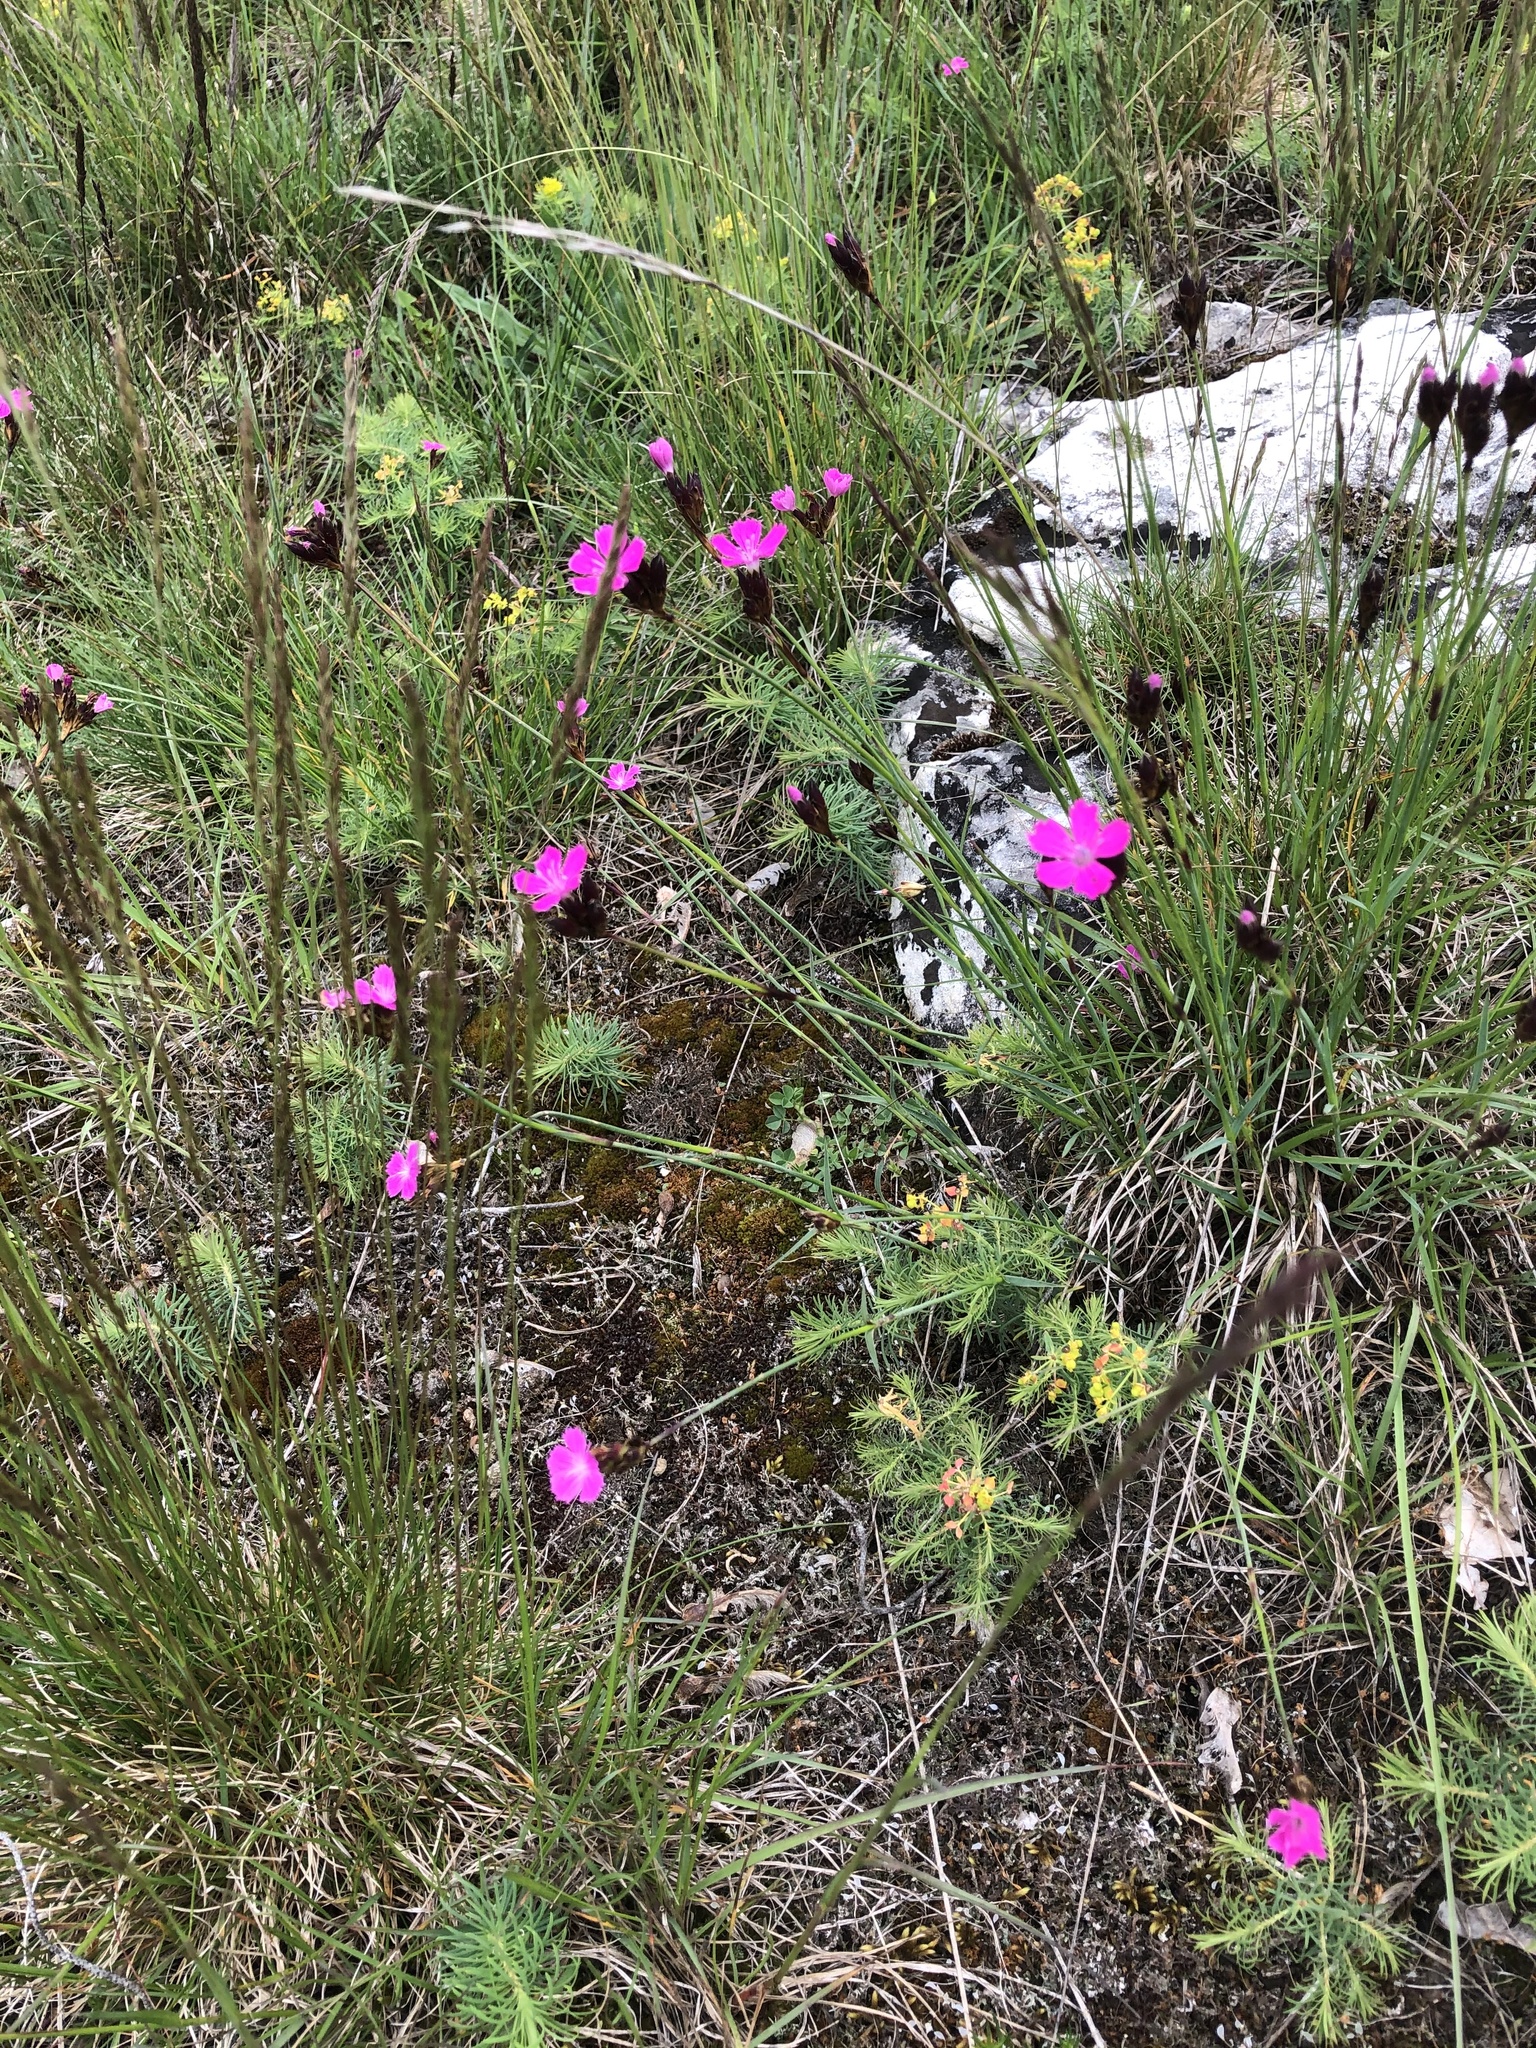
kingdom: Plantae
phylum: Tracheophyta
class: Magnoliopsida
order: Caryophyllales
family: Caryophyllaceae
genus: Dianthus
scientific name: Dianthus carthusianorum
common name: Carthusian pink
